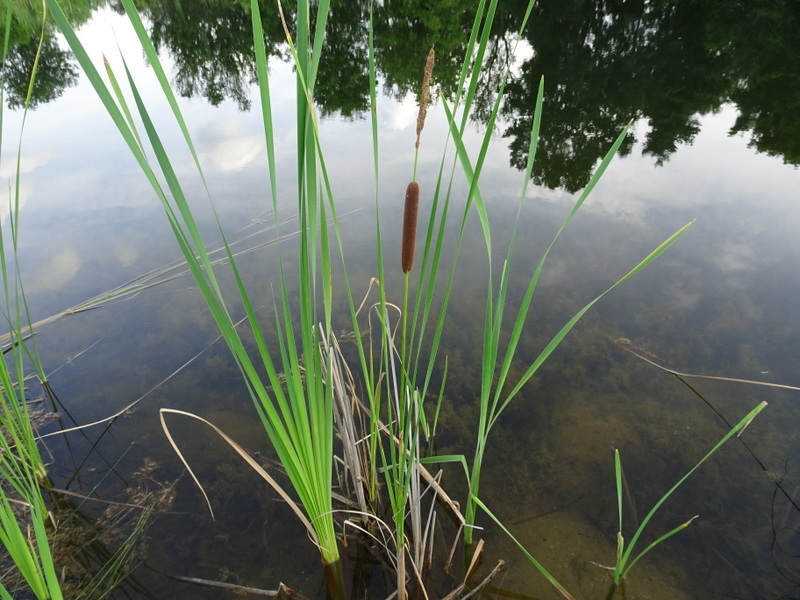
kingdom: Plantae
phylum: Tracheophyta
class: Liliopsida
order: Poales
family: Typhaceae
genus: Typha
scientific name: Typha angustifolia
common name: Lesser bulrush
